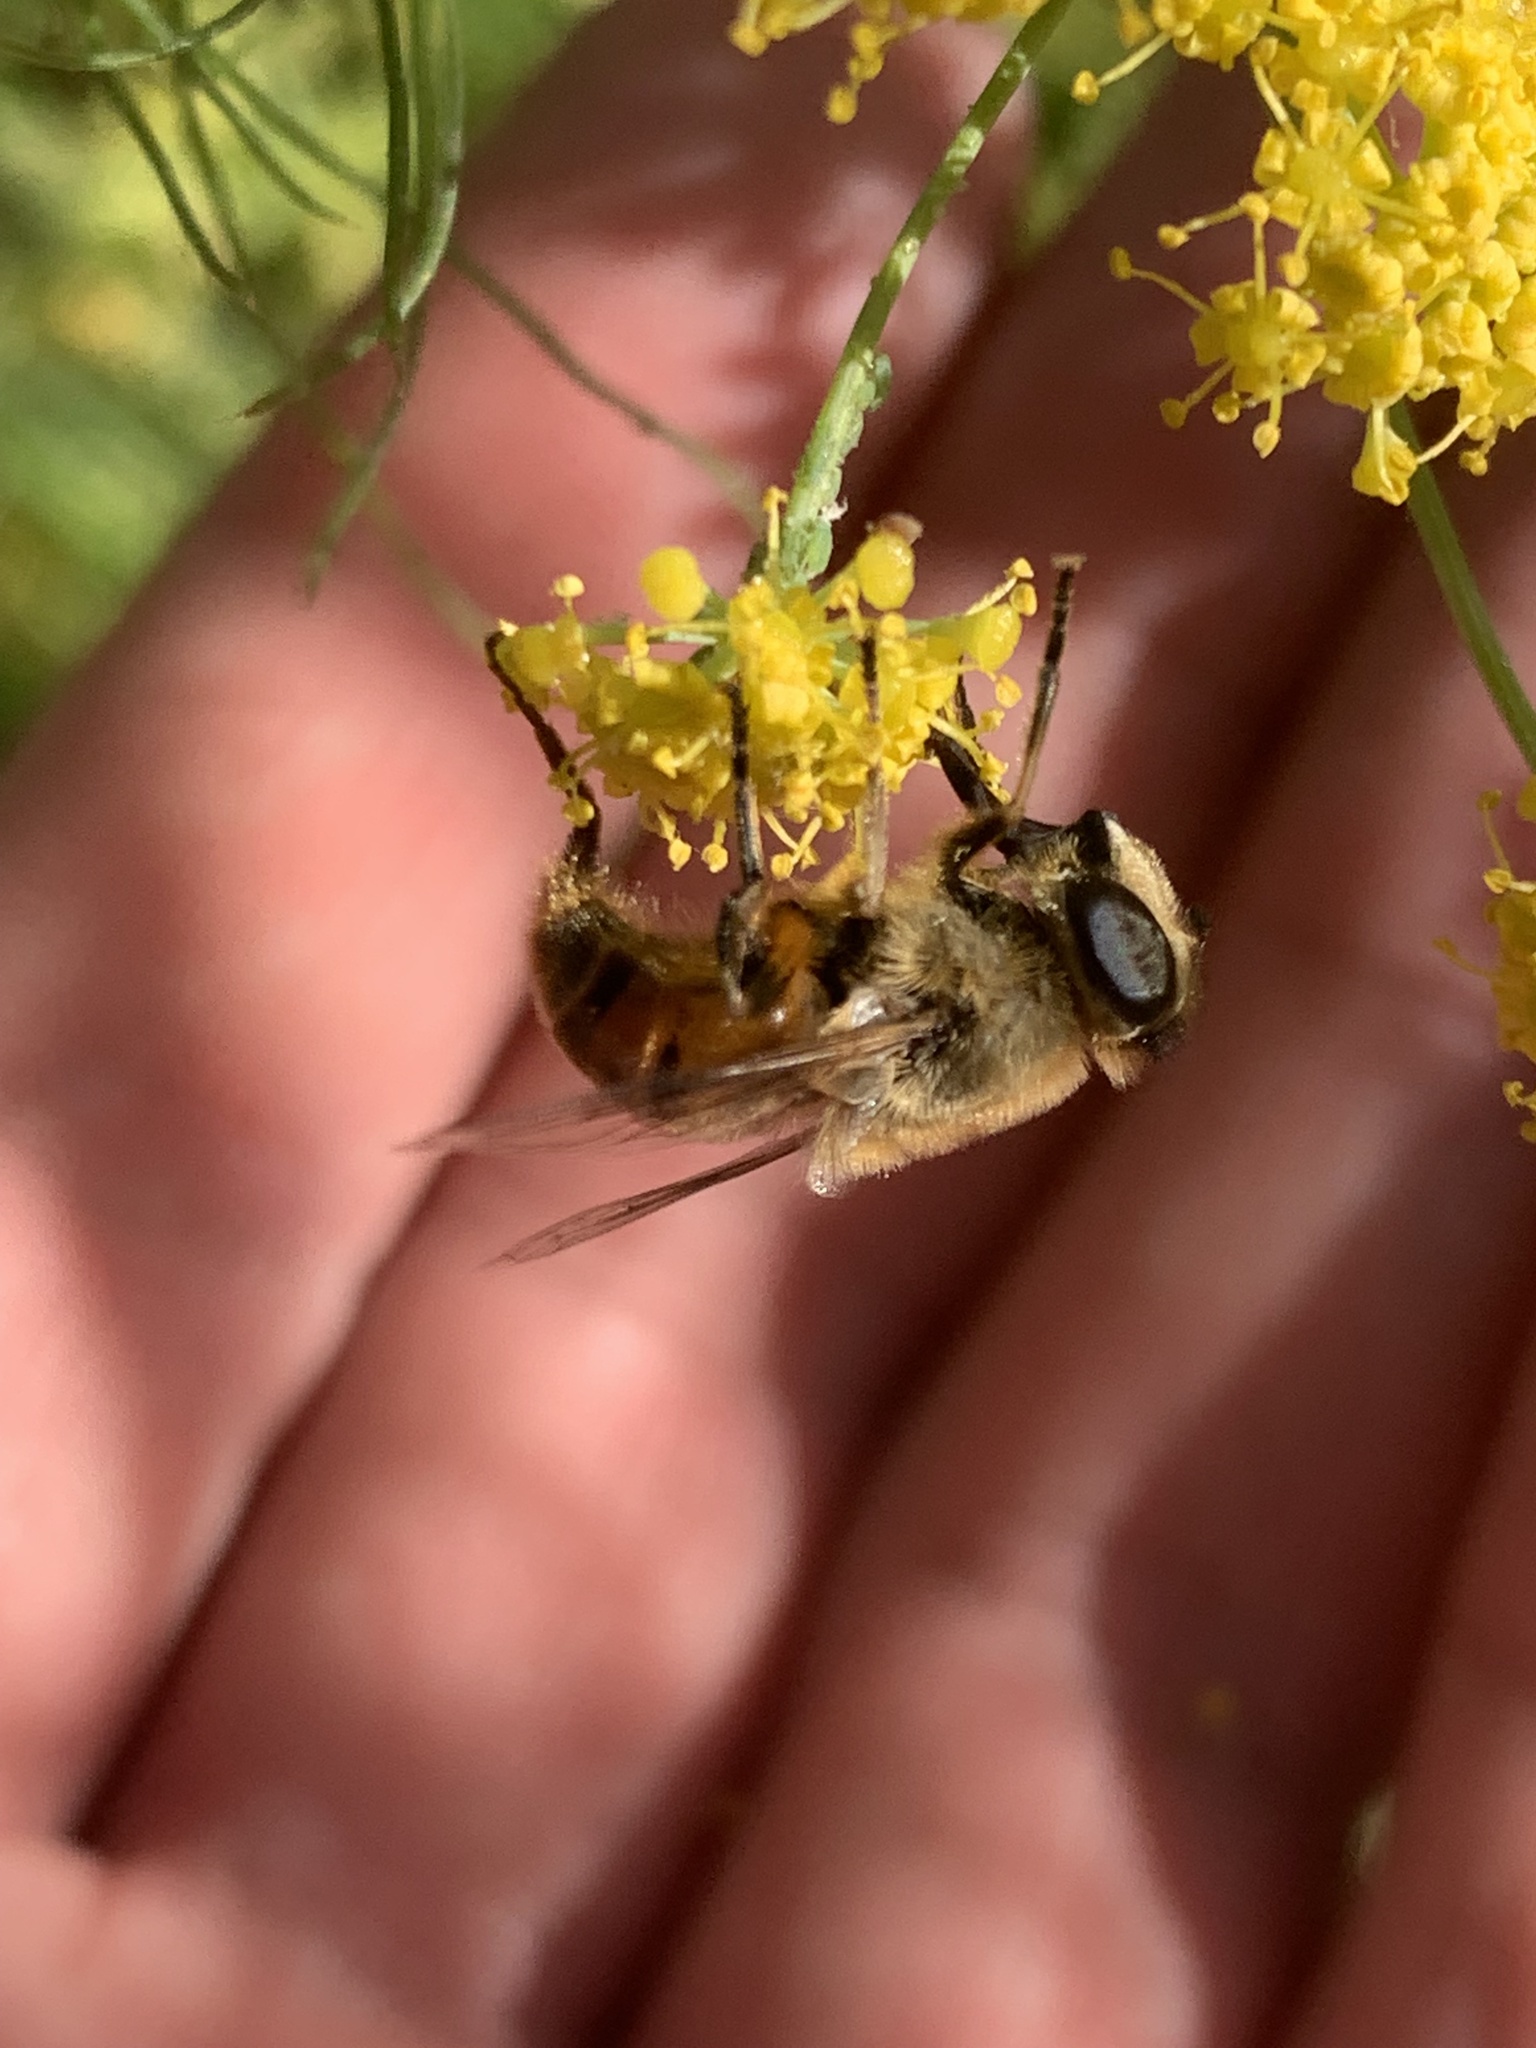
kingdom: Animalia
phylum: Arthropoda
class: Insecta
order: Diptera
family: Syrphidae
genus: Eristalis
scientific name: Eristalis tenax
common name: Drone fly
